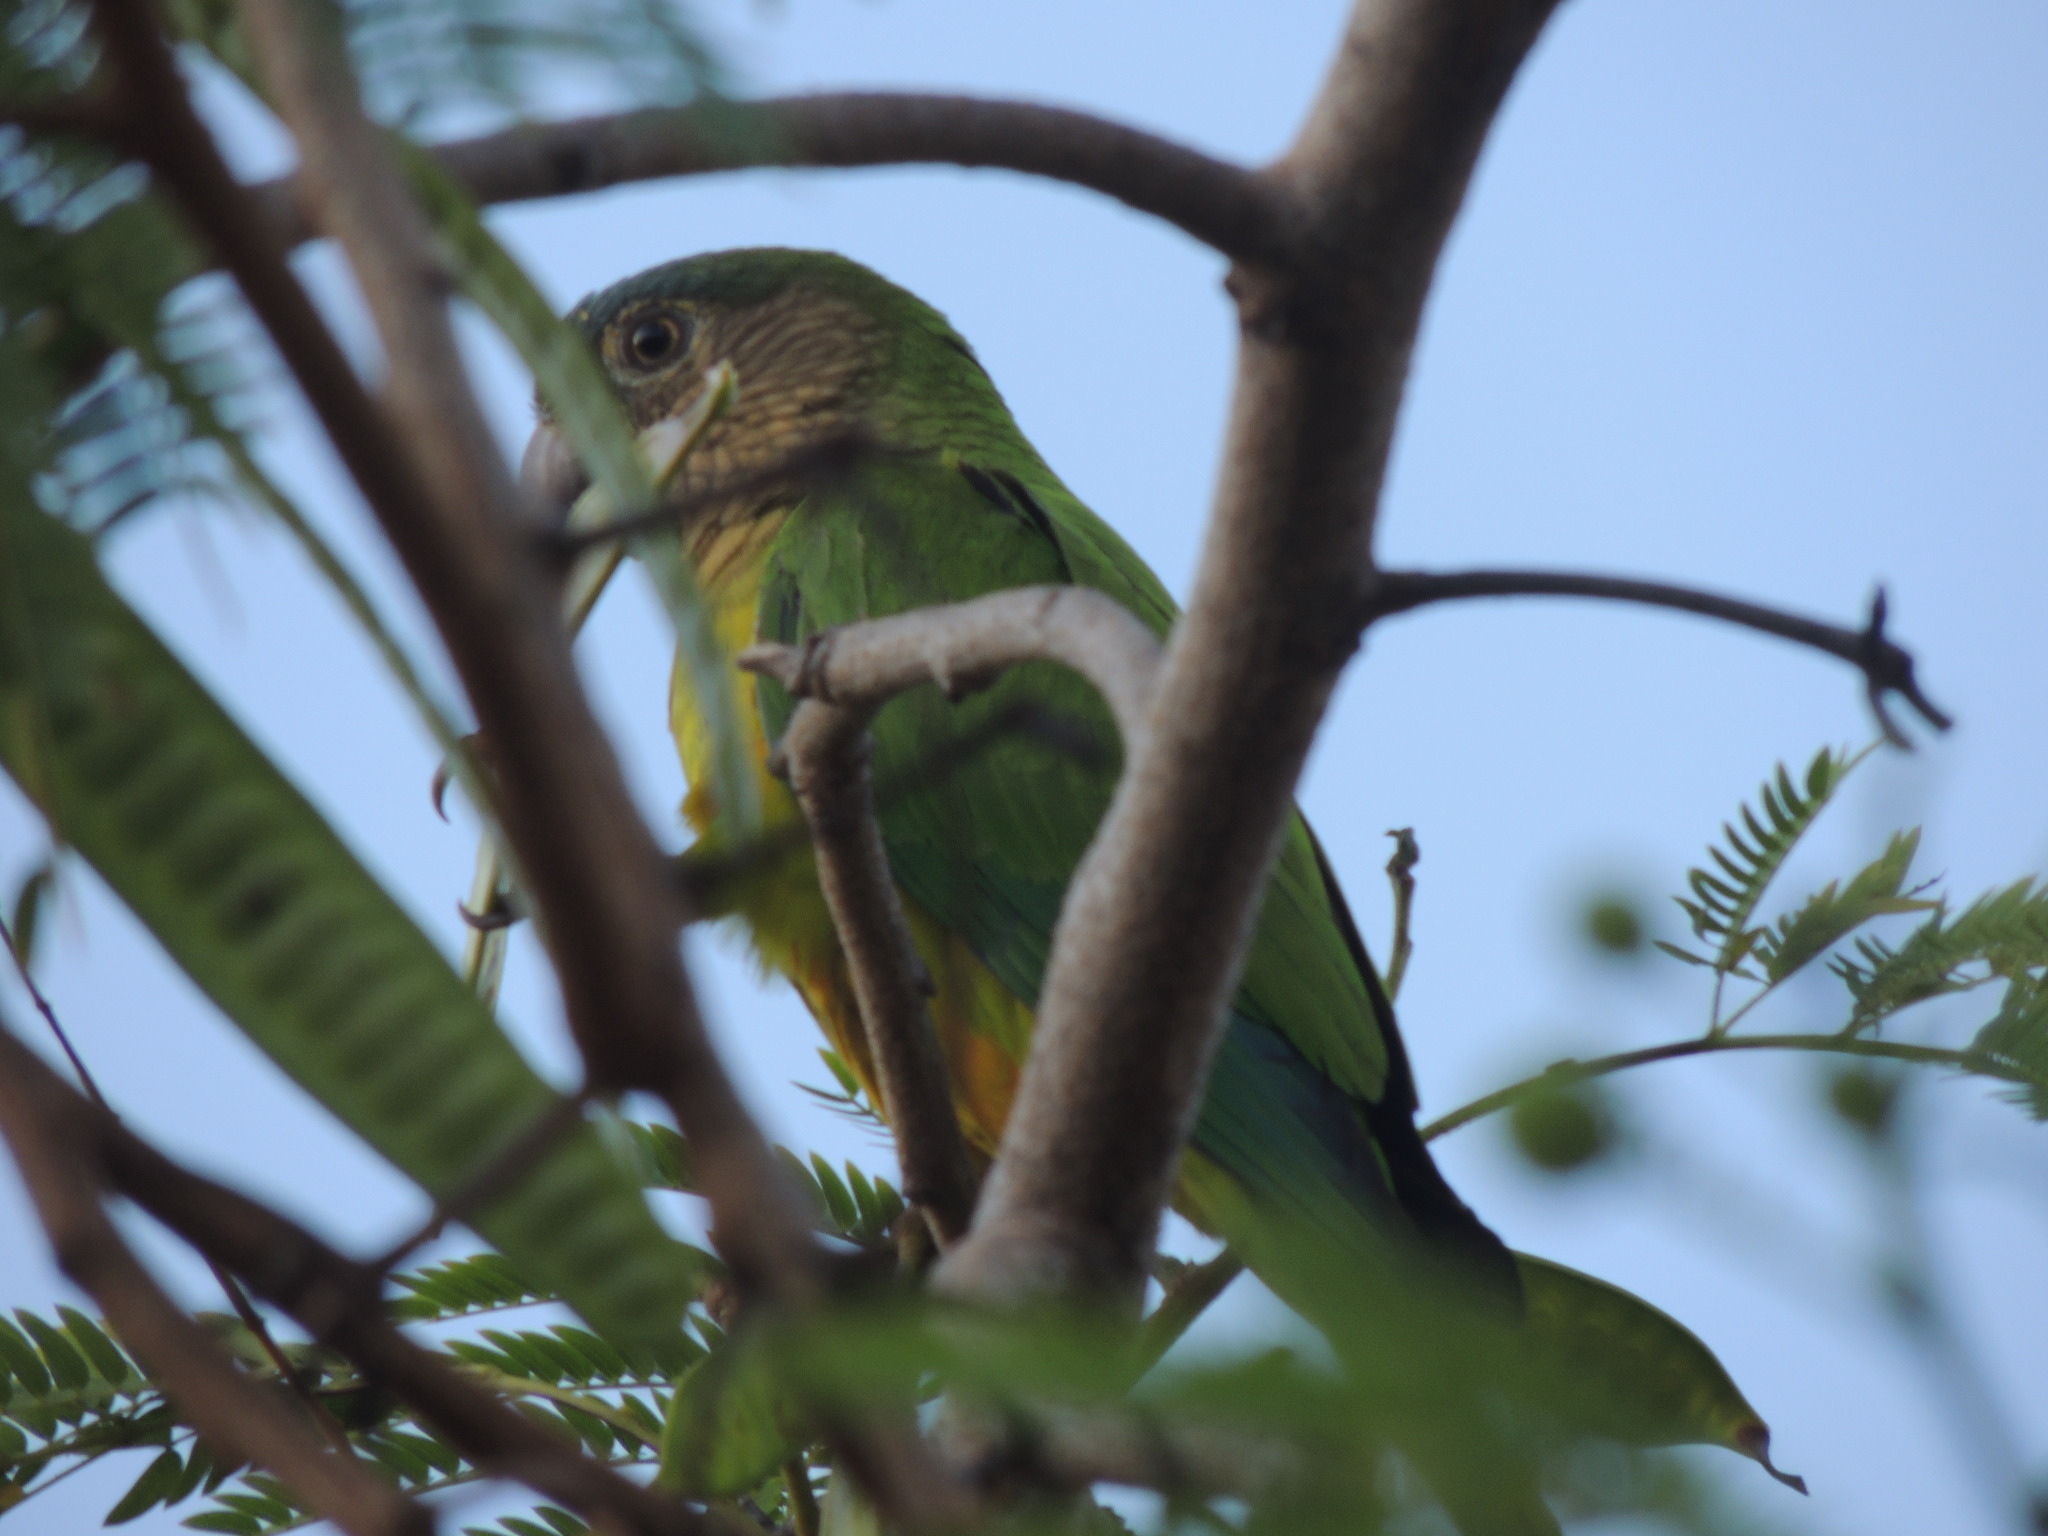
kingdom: Animalia
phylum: Chordata
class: Aves
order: Psittaciformes
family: Psittacidae
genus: Aratinga
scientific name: Aratinga pertinax
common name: Brown-throated parakeet
